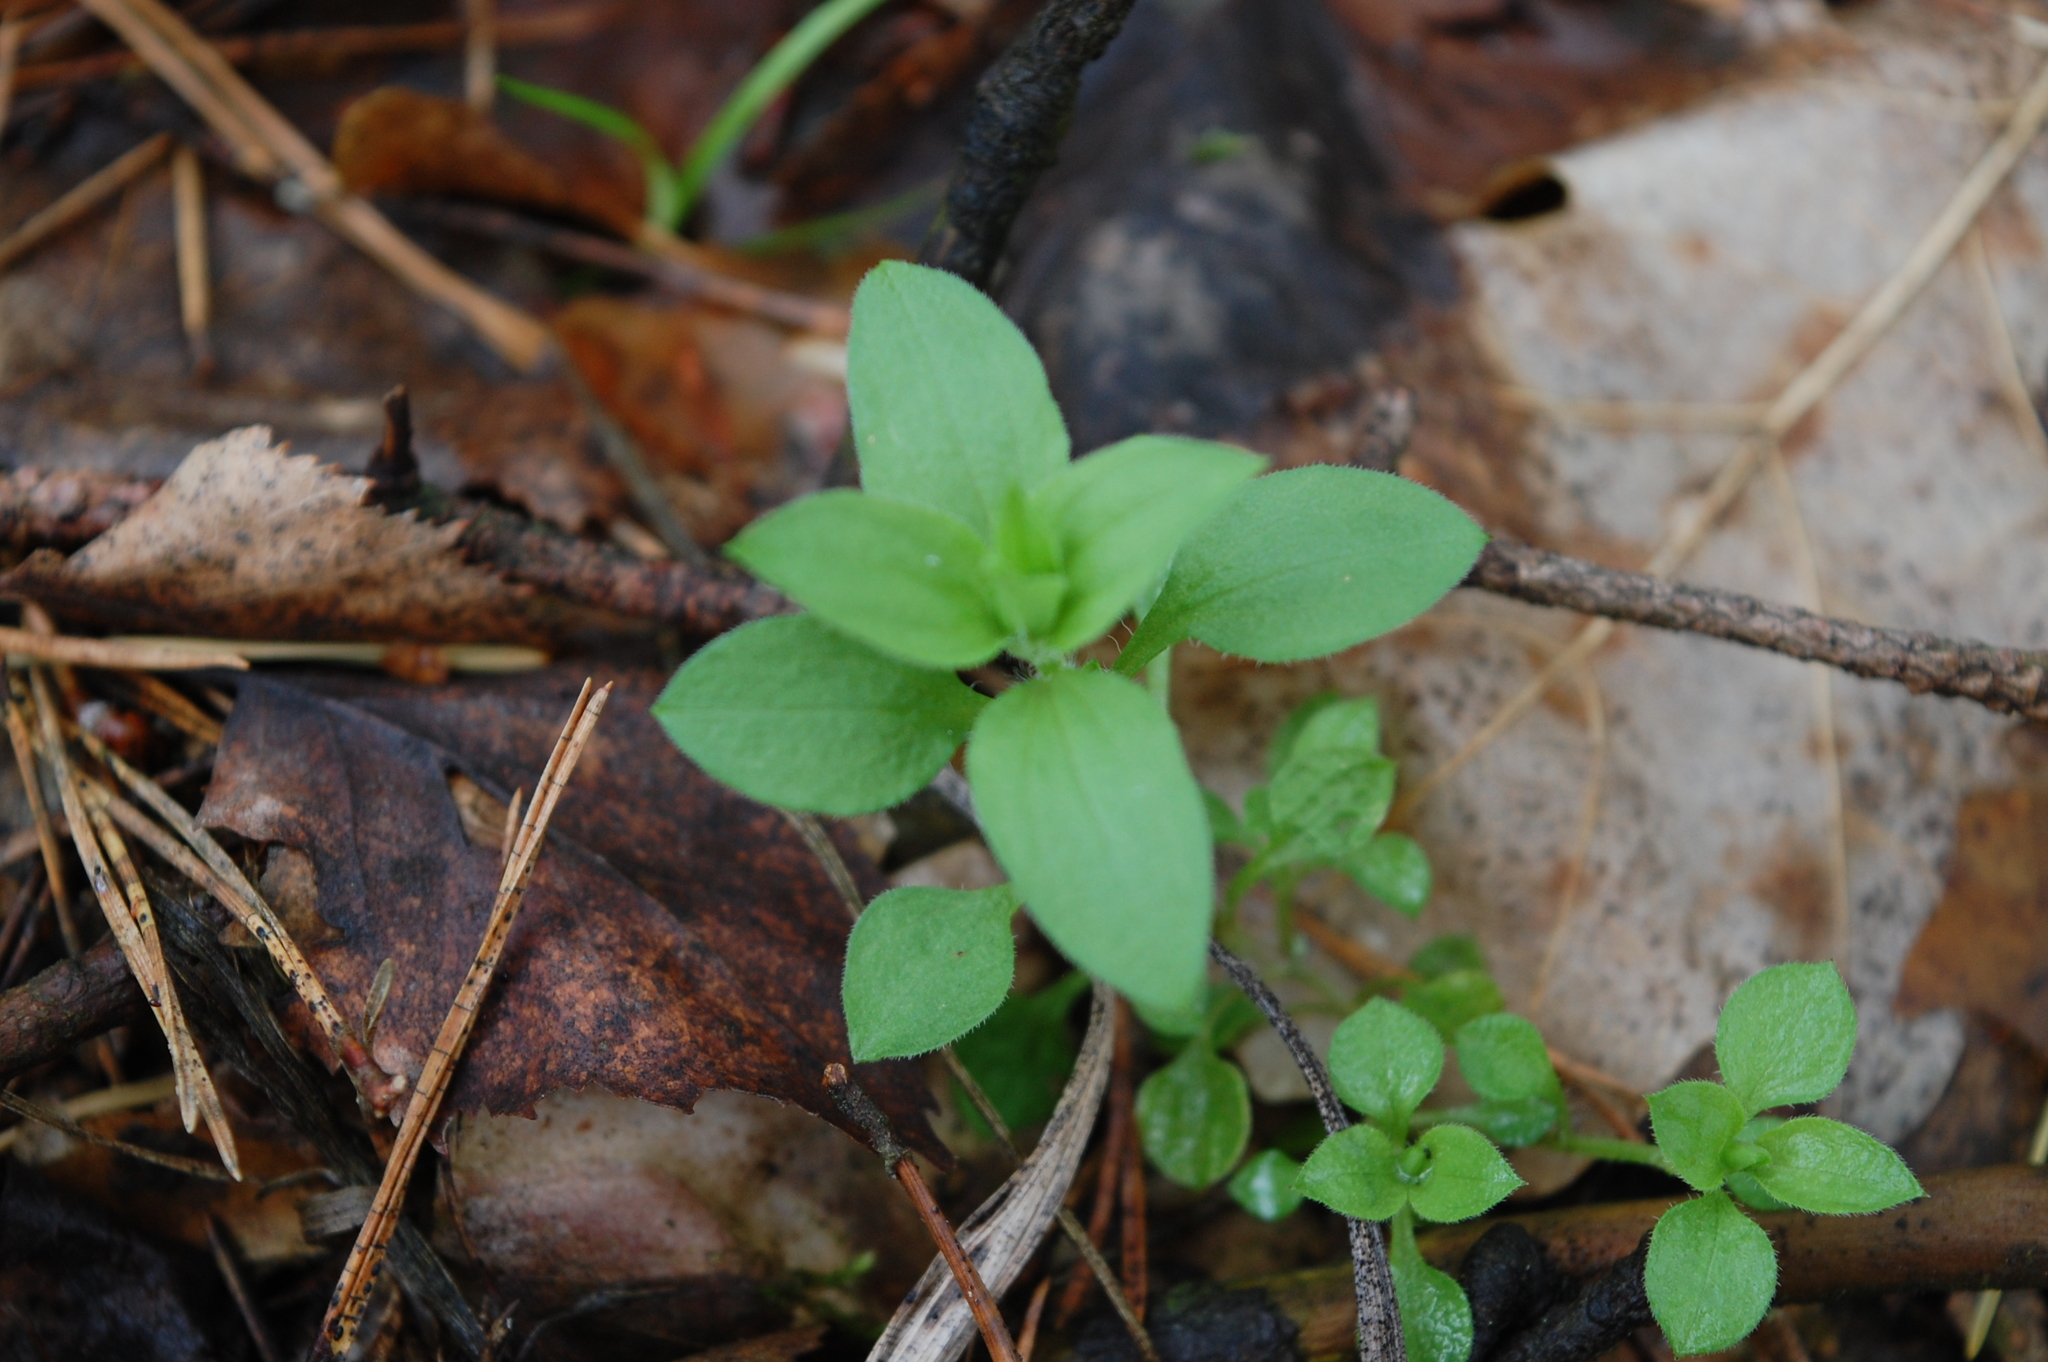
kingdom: Plantae
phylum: Tracheophyta
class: Magnoliopsida
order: Caryophyllales
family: Caryophyllaceae
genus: Moehringia
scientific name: Moehringia trinervia
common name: Three-nerved sandwort
